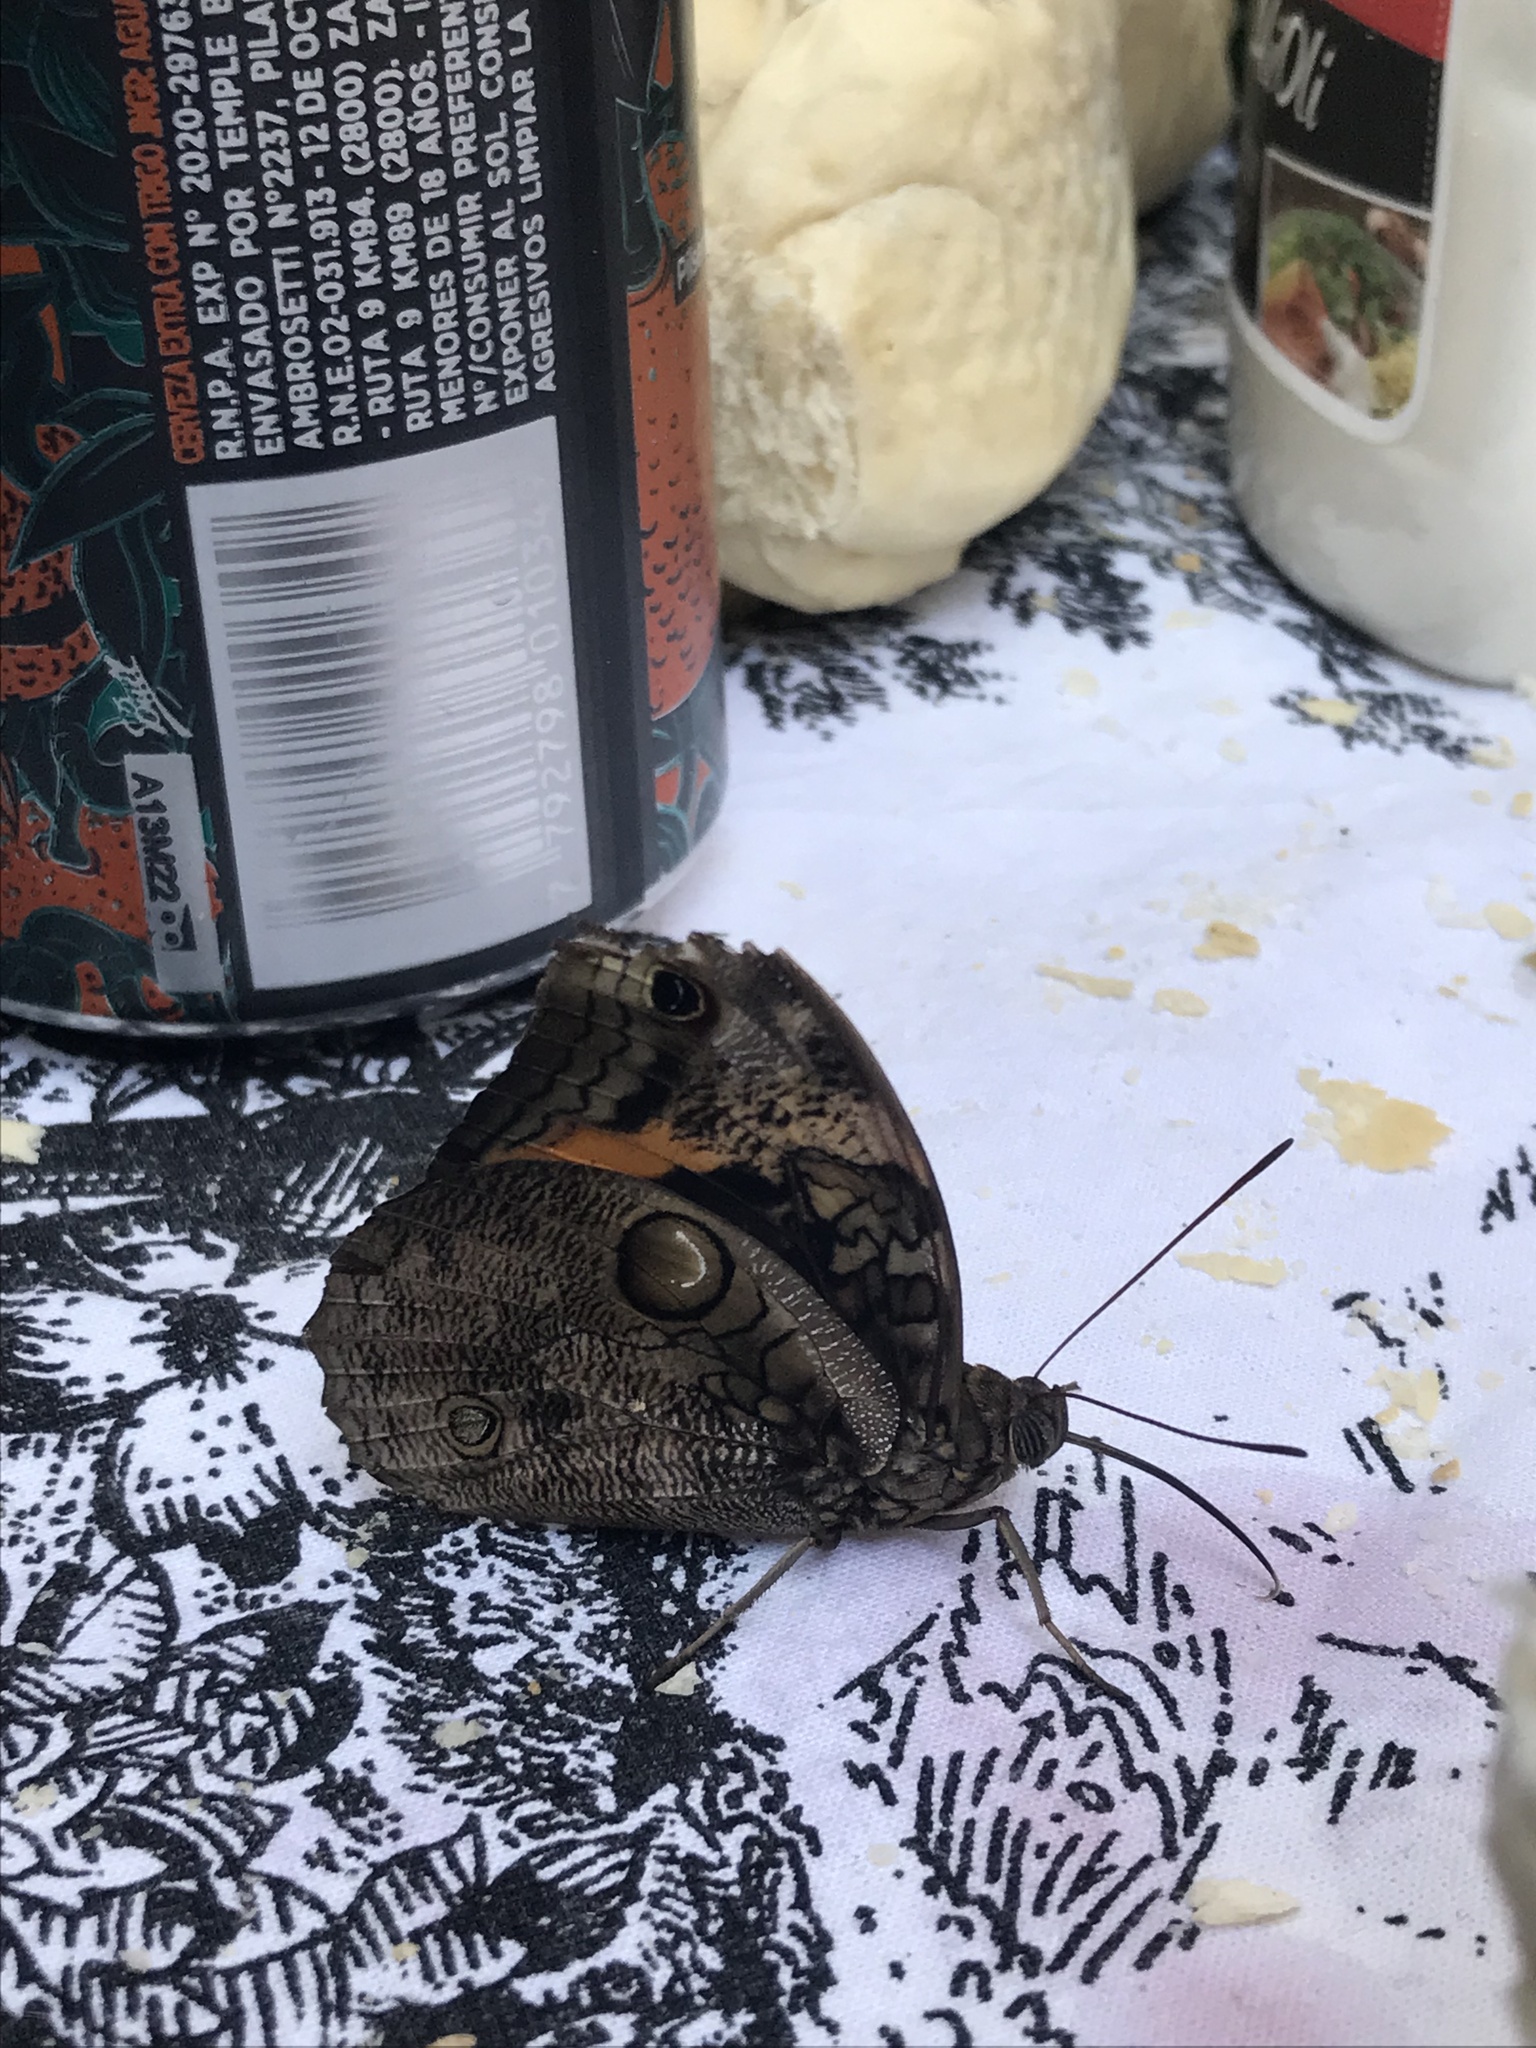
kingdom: Animalia
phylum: Arthropoda
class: Insecta
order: Lepidoptera
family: Nymphalidae
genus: Opsiphanes
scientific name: Opsiphanes invirae
